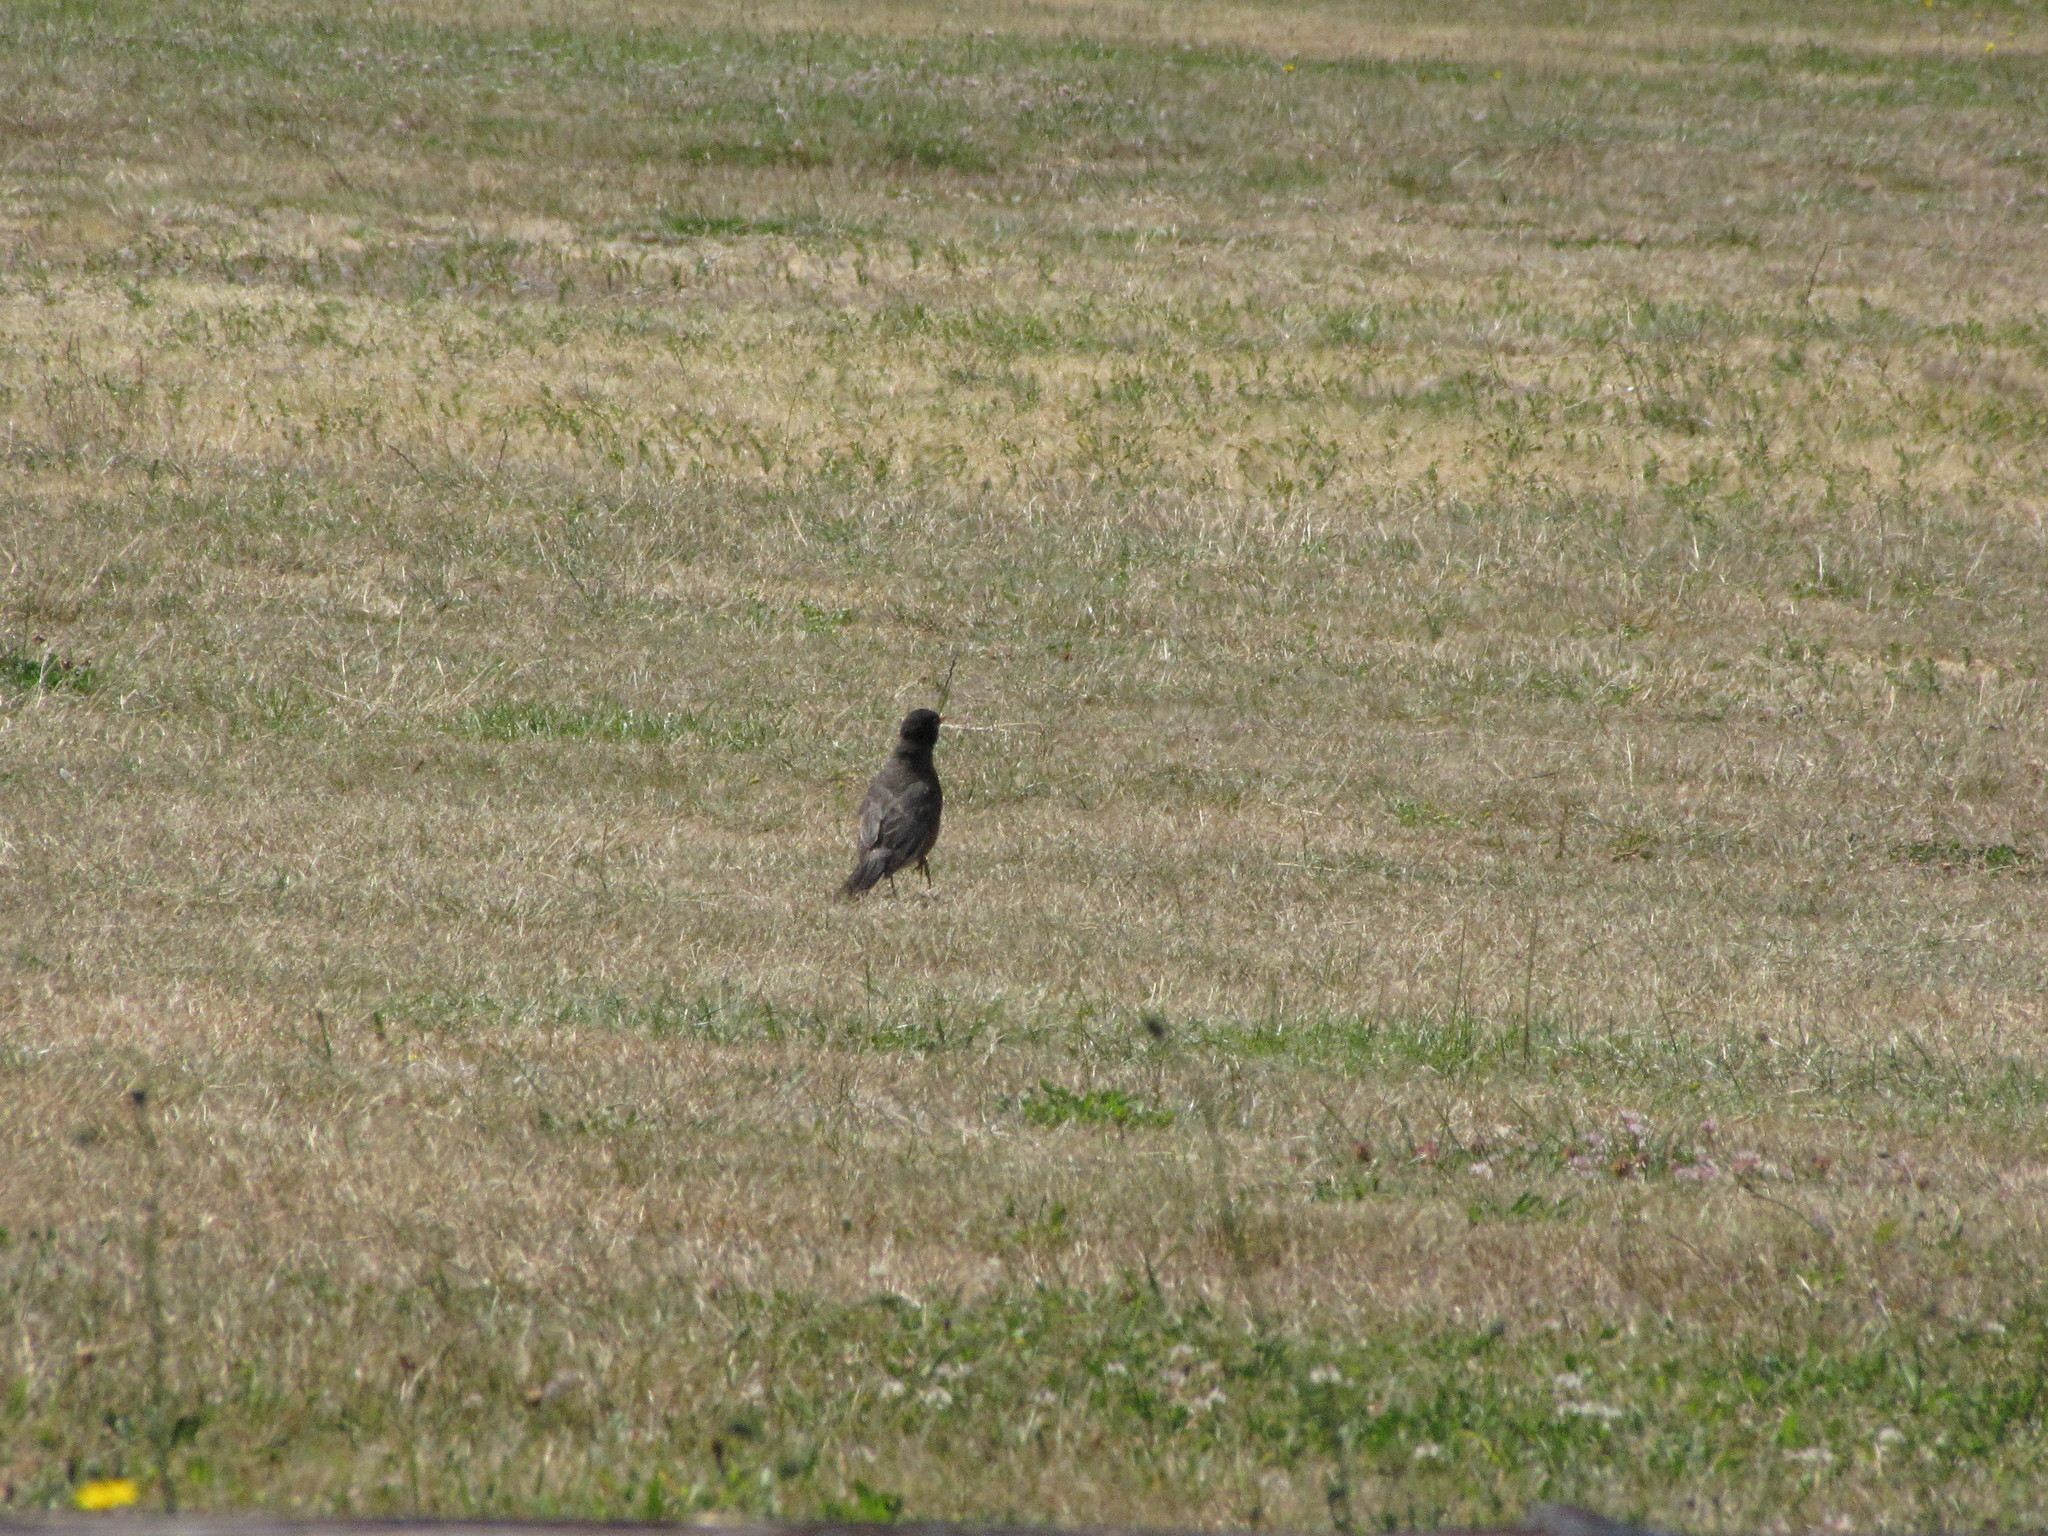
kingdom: Animalia
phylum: Chordata
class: Aves
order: Passeriformes
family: Turdidae
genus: Turdus
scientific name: Turdus migratorius
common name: American robin
